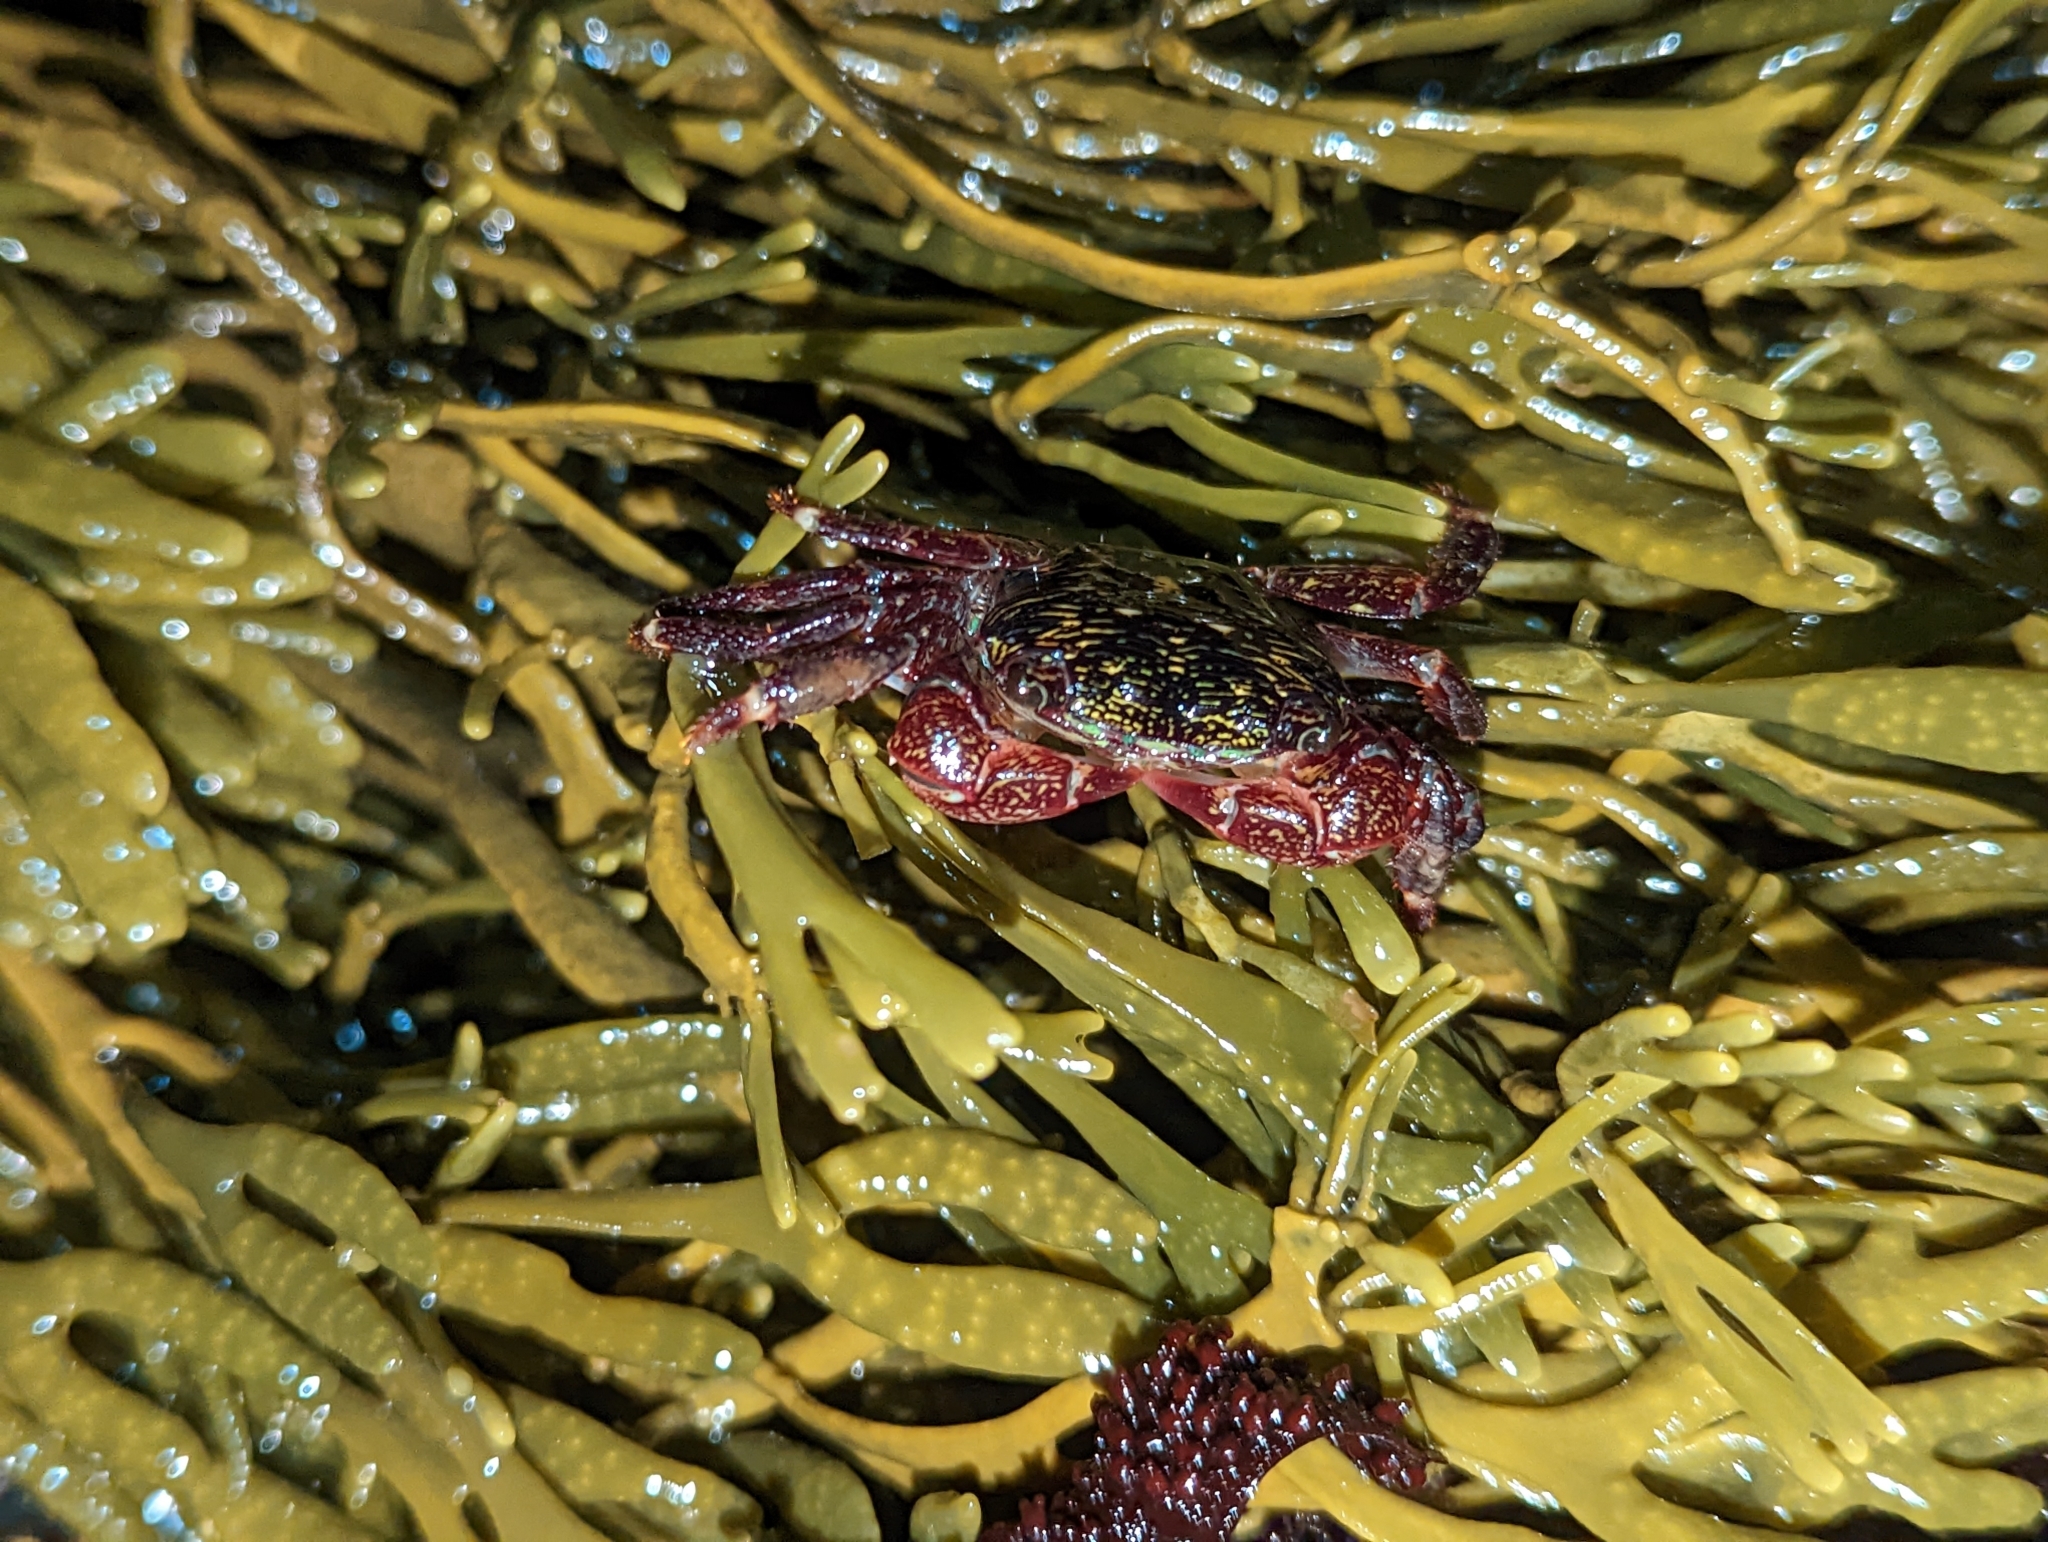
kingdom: Animalia
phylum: Arthropoda
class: Malacostraca
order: Decapoda
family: Grapsidae
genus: Pachygrapsus
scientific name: Pachygrapsus crassipes
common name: Striped shore crab
